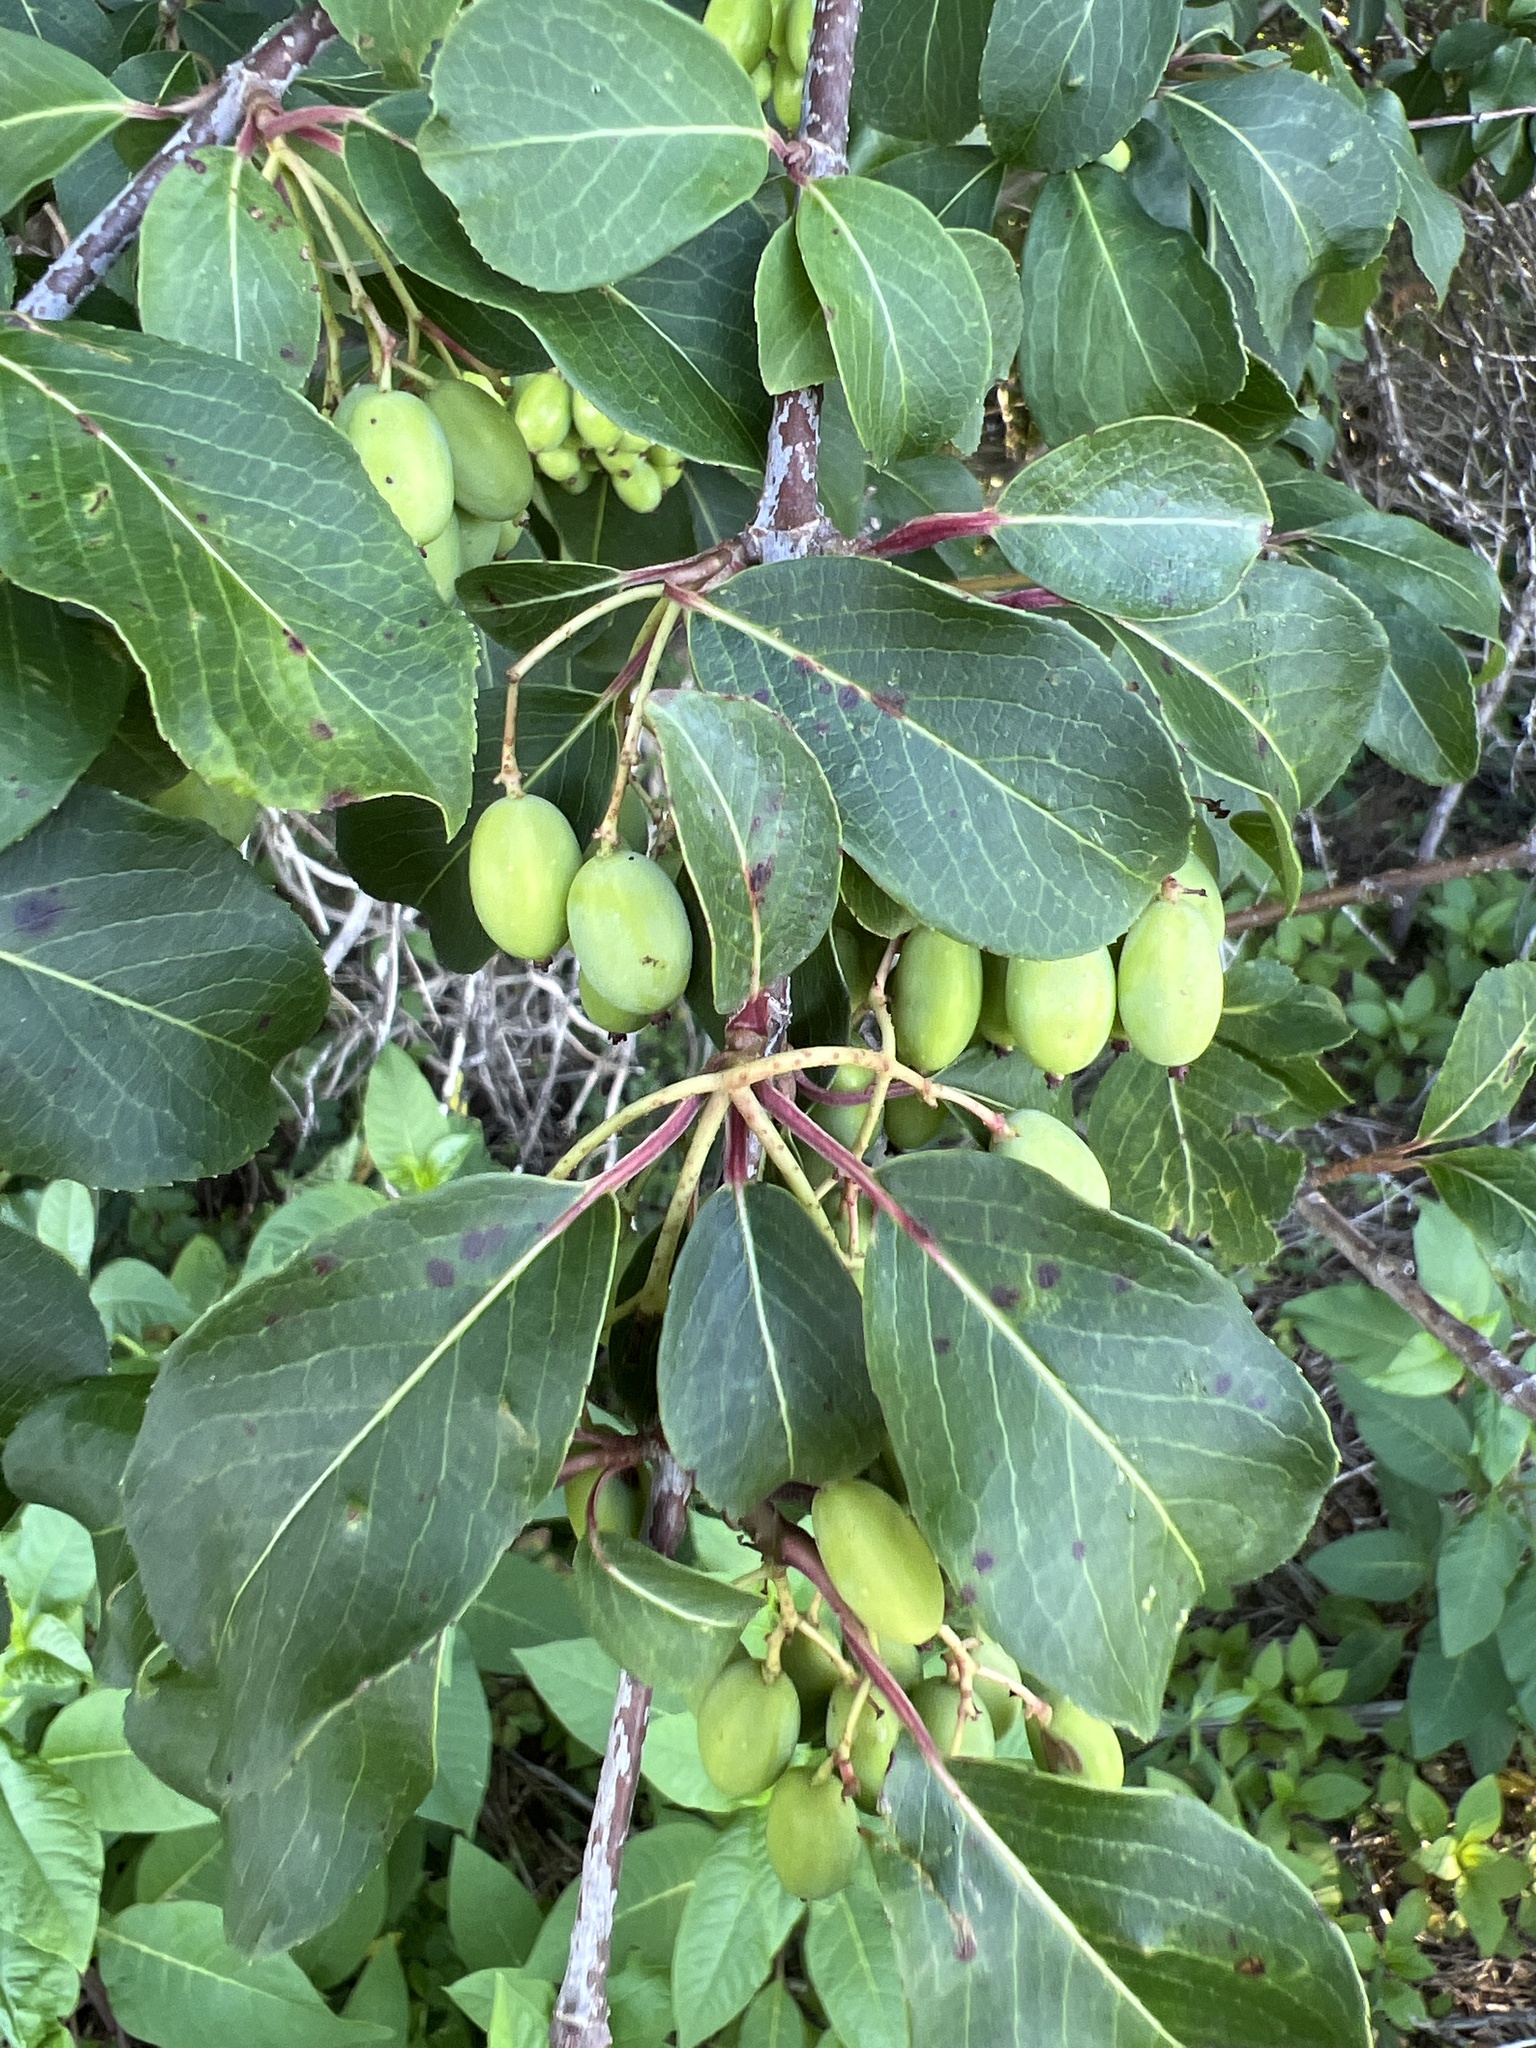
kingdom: Plantae
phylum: Tracheophyta
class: Magnoliopsida
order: Dipsacales
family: Viburnaceae
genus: Viburnum
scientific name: Viburnum prunifolium
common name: Black haw
